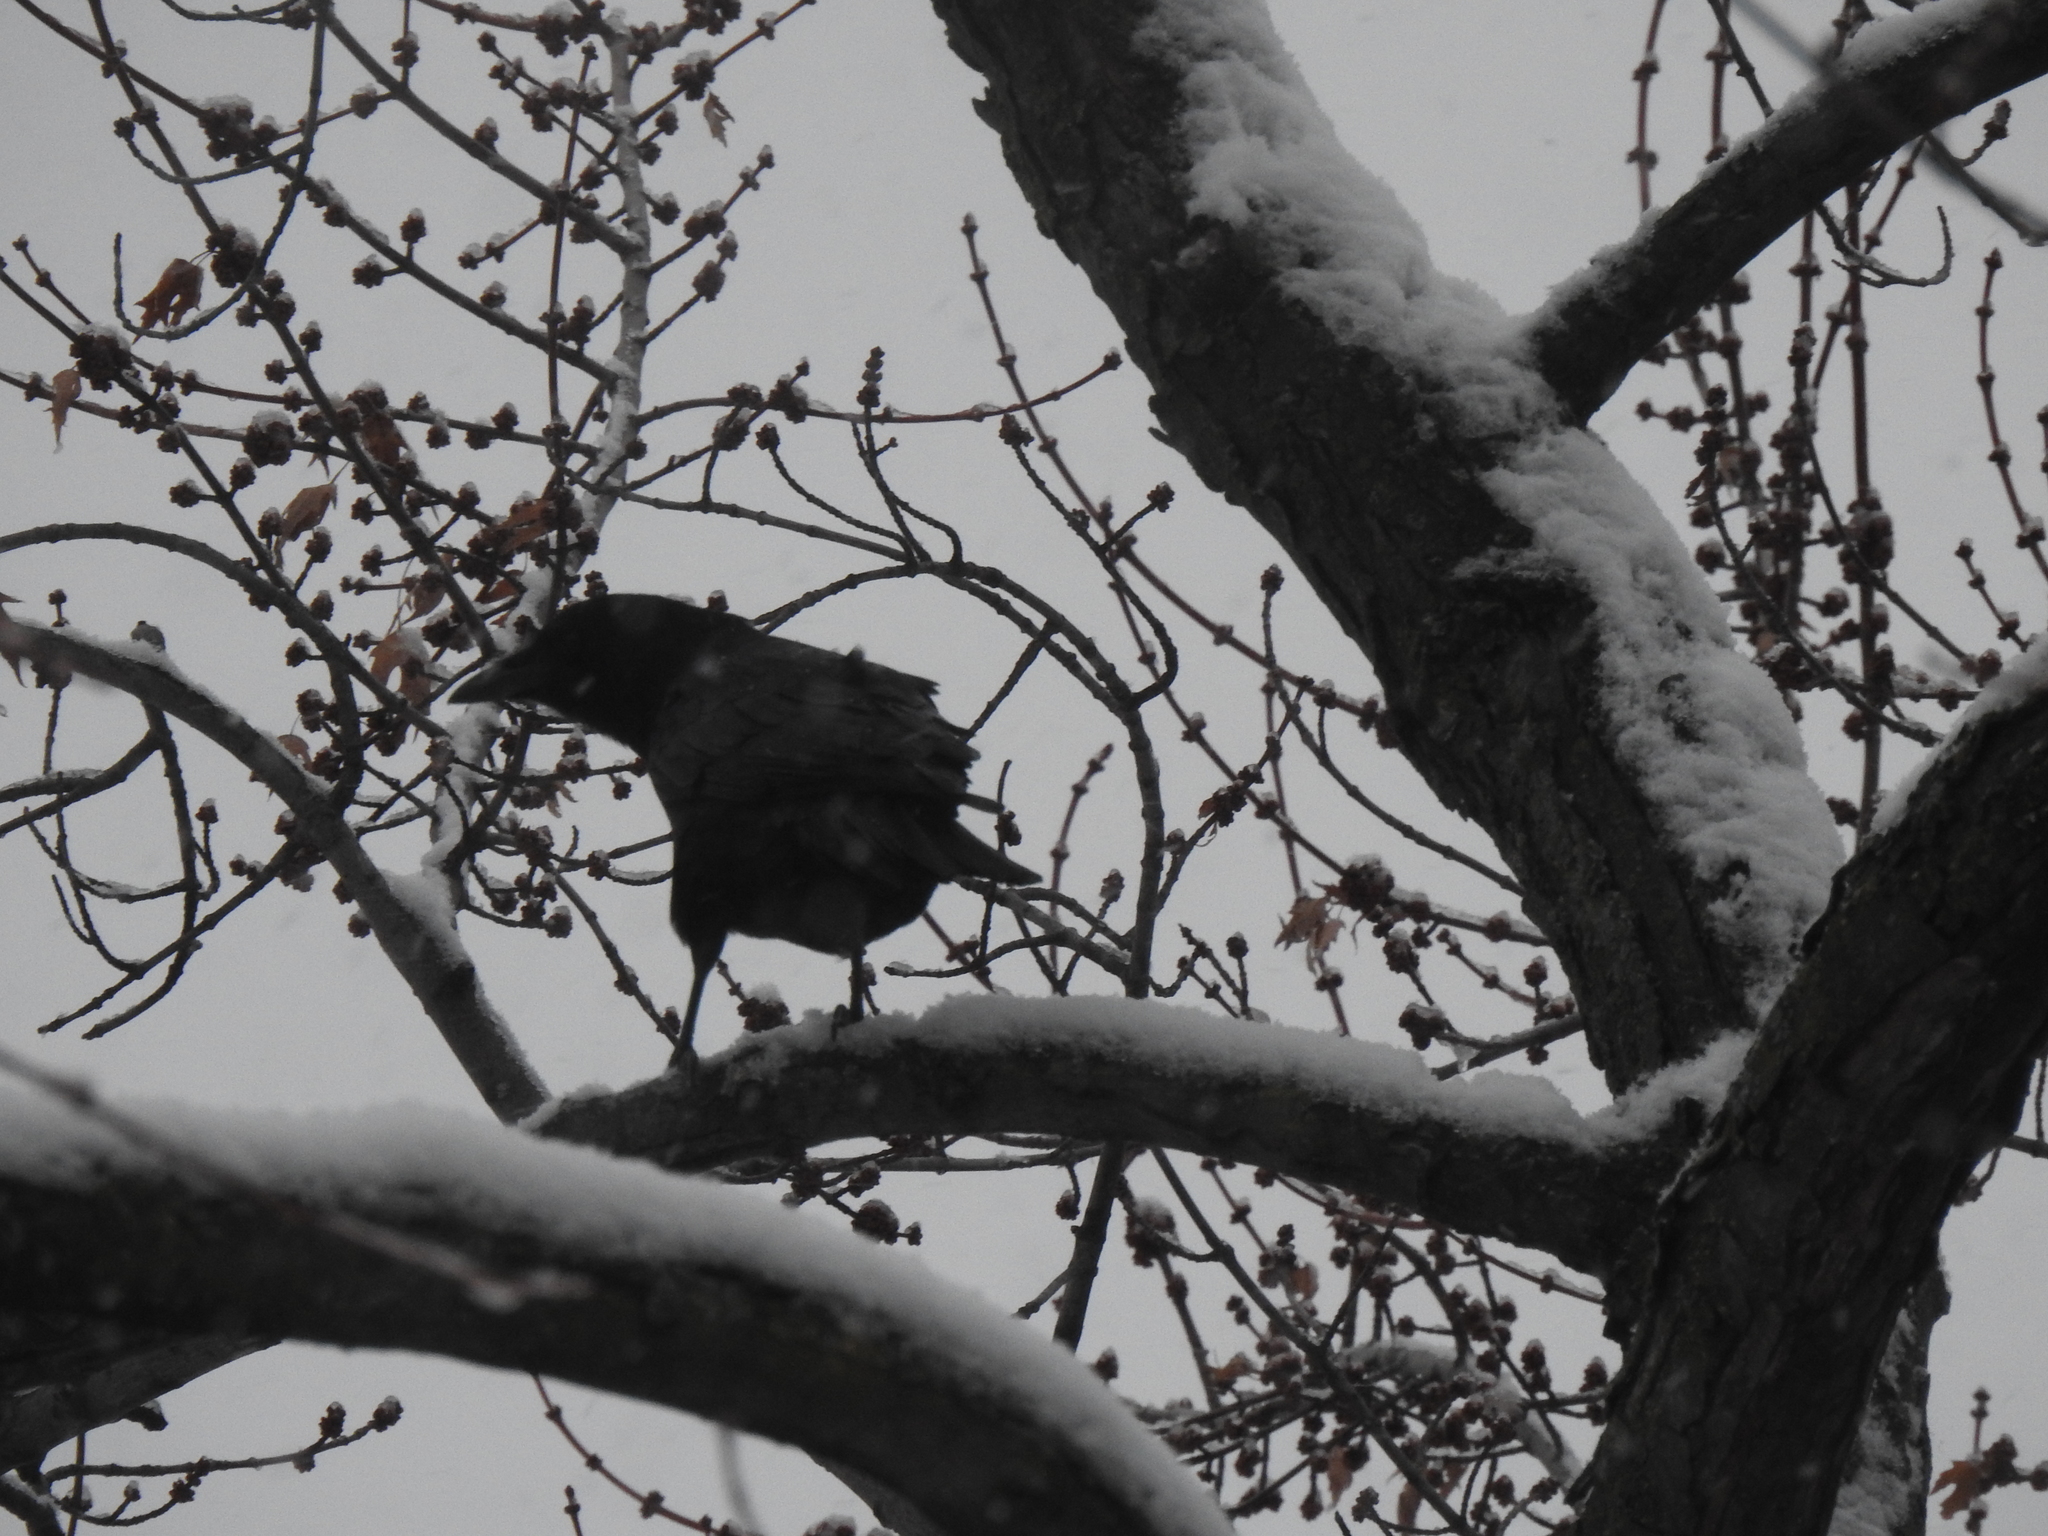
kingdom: Animalia
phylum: Chordata
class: Aves
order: Passeriformes
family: Corvidae
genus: Corvus
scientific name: Corvus brachyrhynchos
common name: American crow
